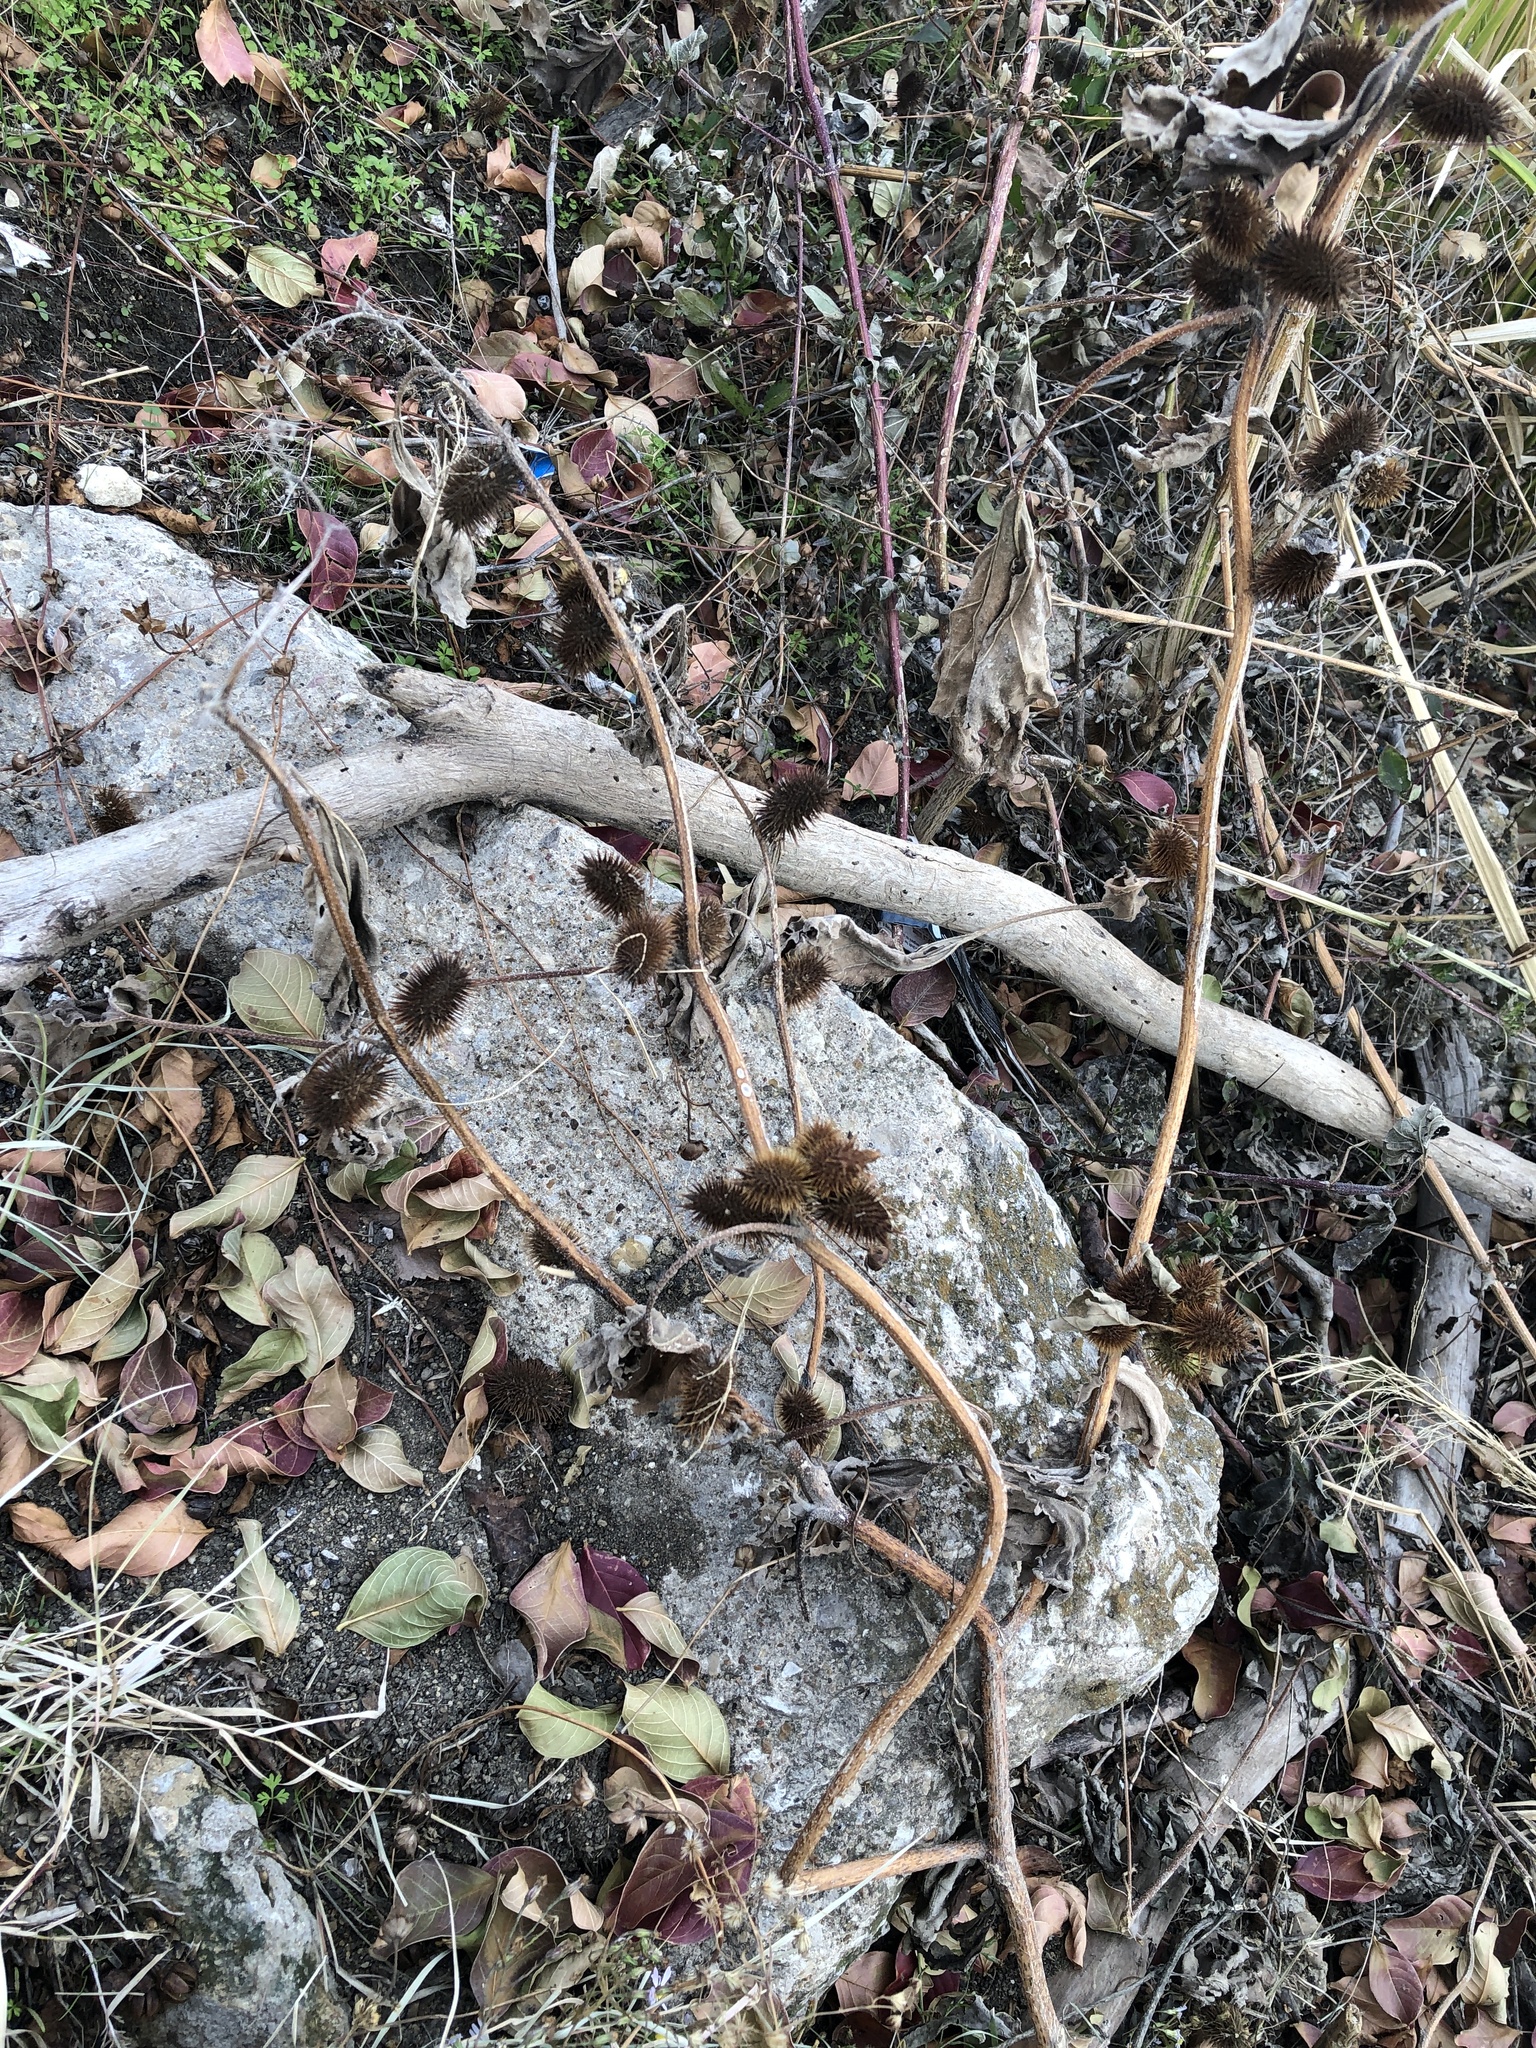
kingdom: Plantae
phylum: Tracheophyta
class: Magnoliopsida
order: Asterales
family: Asteraceae
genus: Xanthium
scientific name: Xanthium strumarium
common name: Rough cocklebur
